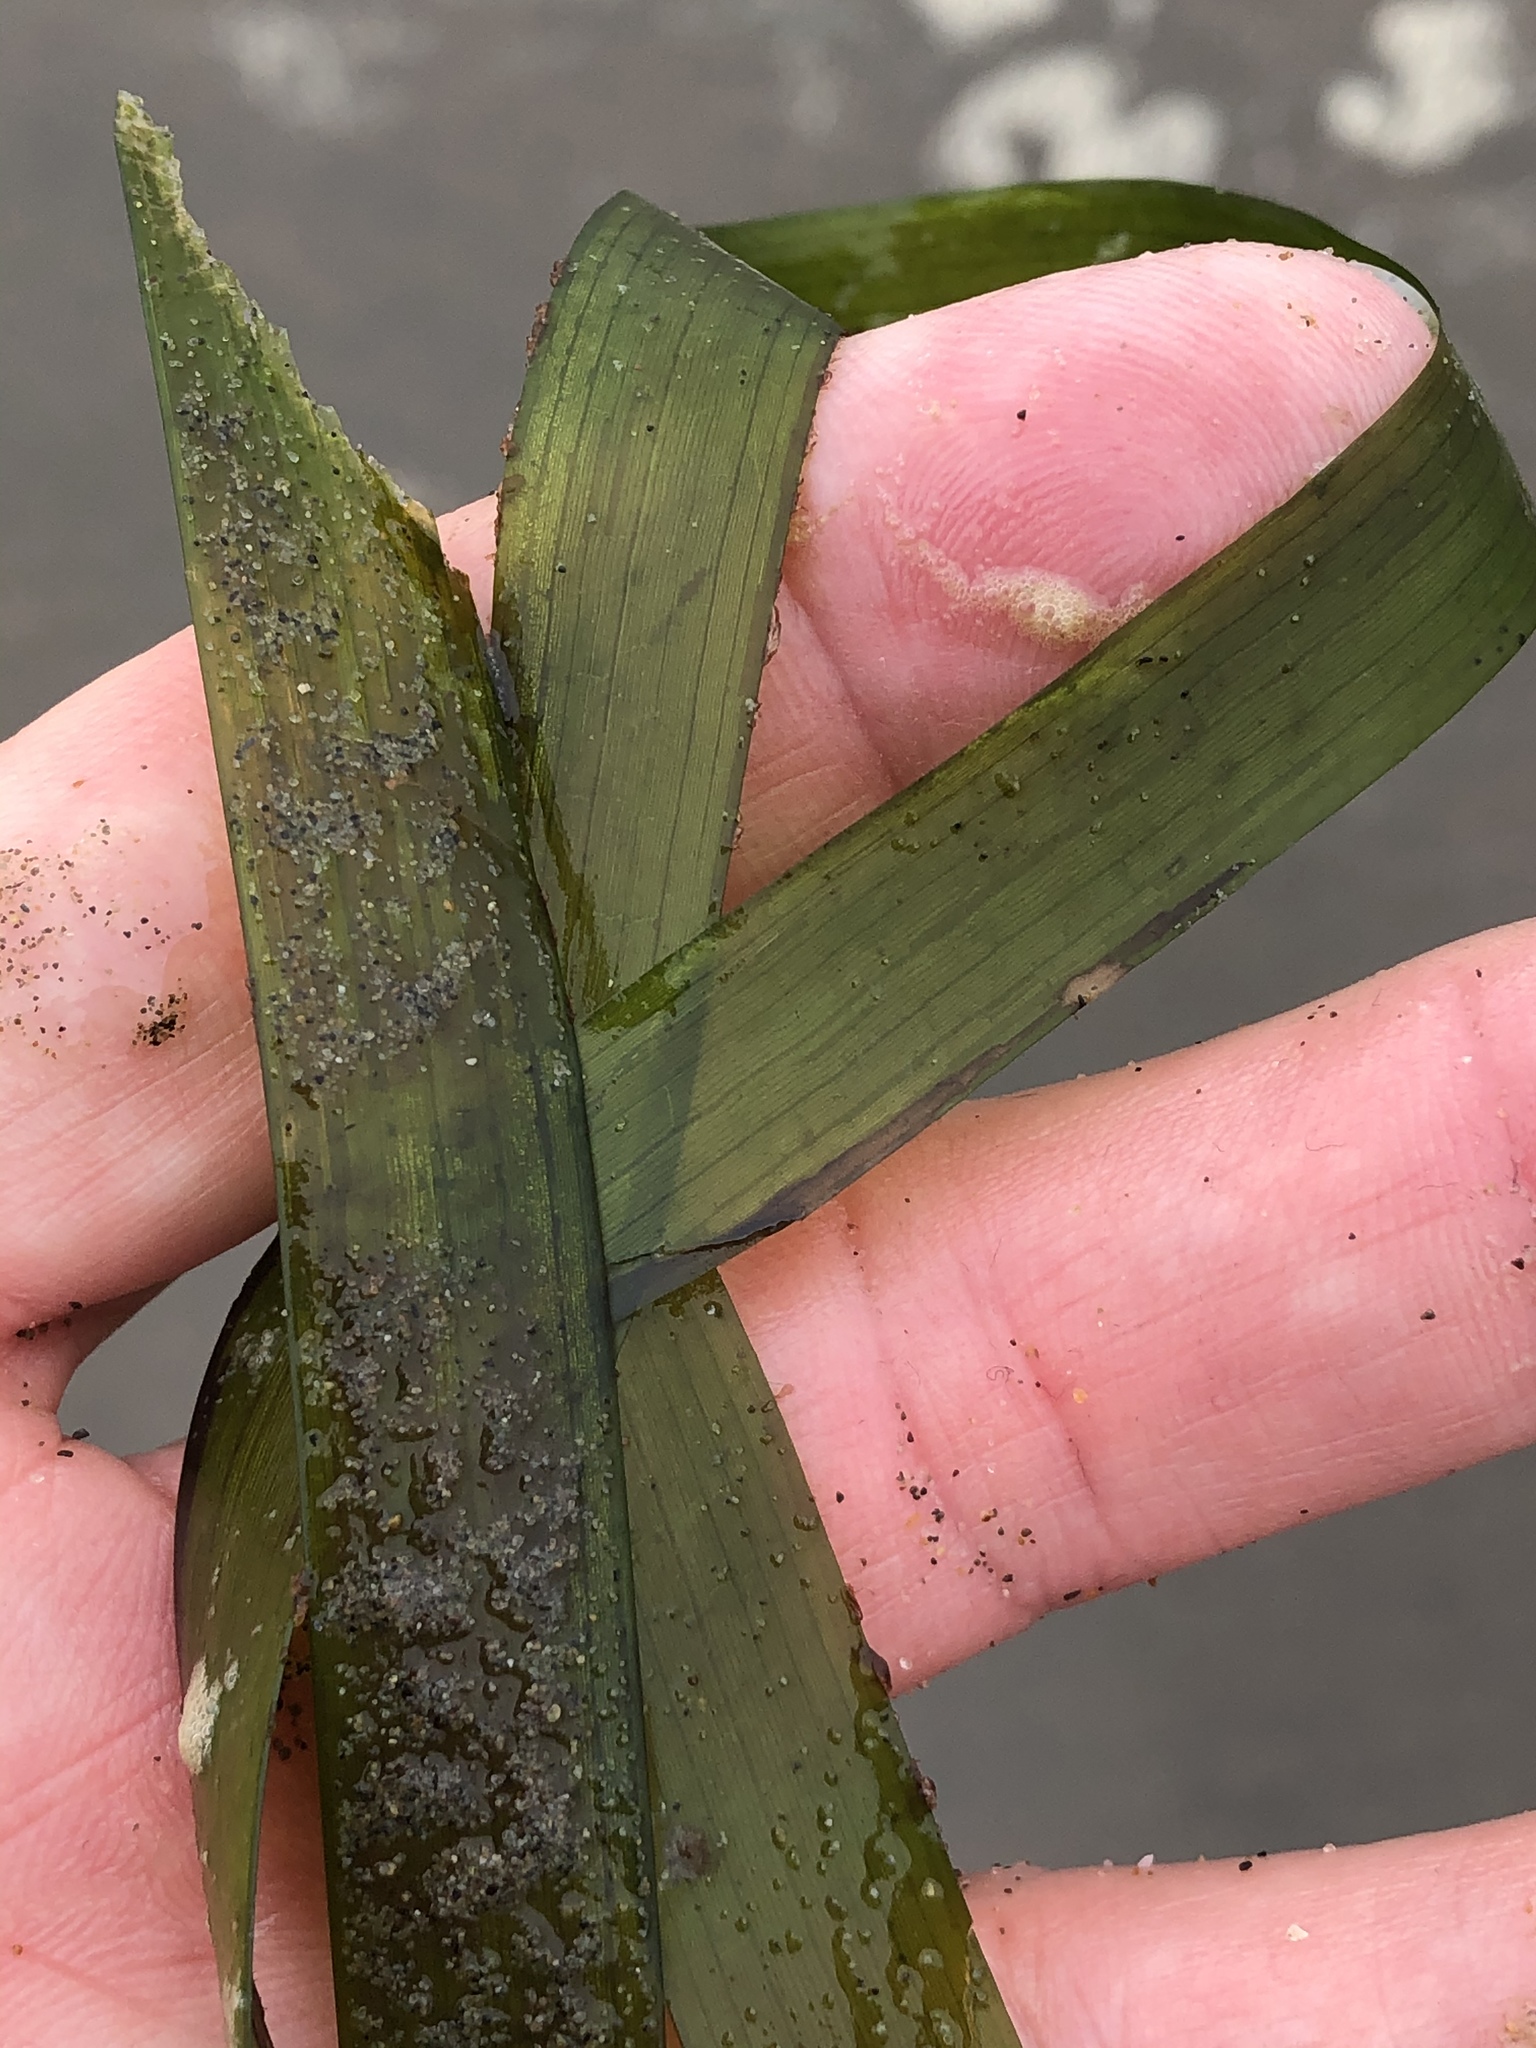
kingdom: Plantae
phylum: Tracheophyta
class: Liliopsida
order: Alismatales
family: Zosteraceae
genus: Zostera
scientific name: Zostera marina
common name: Eelgrass
